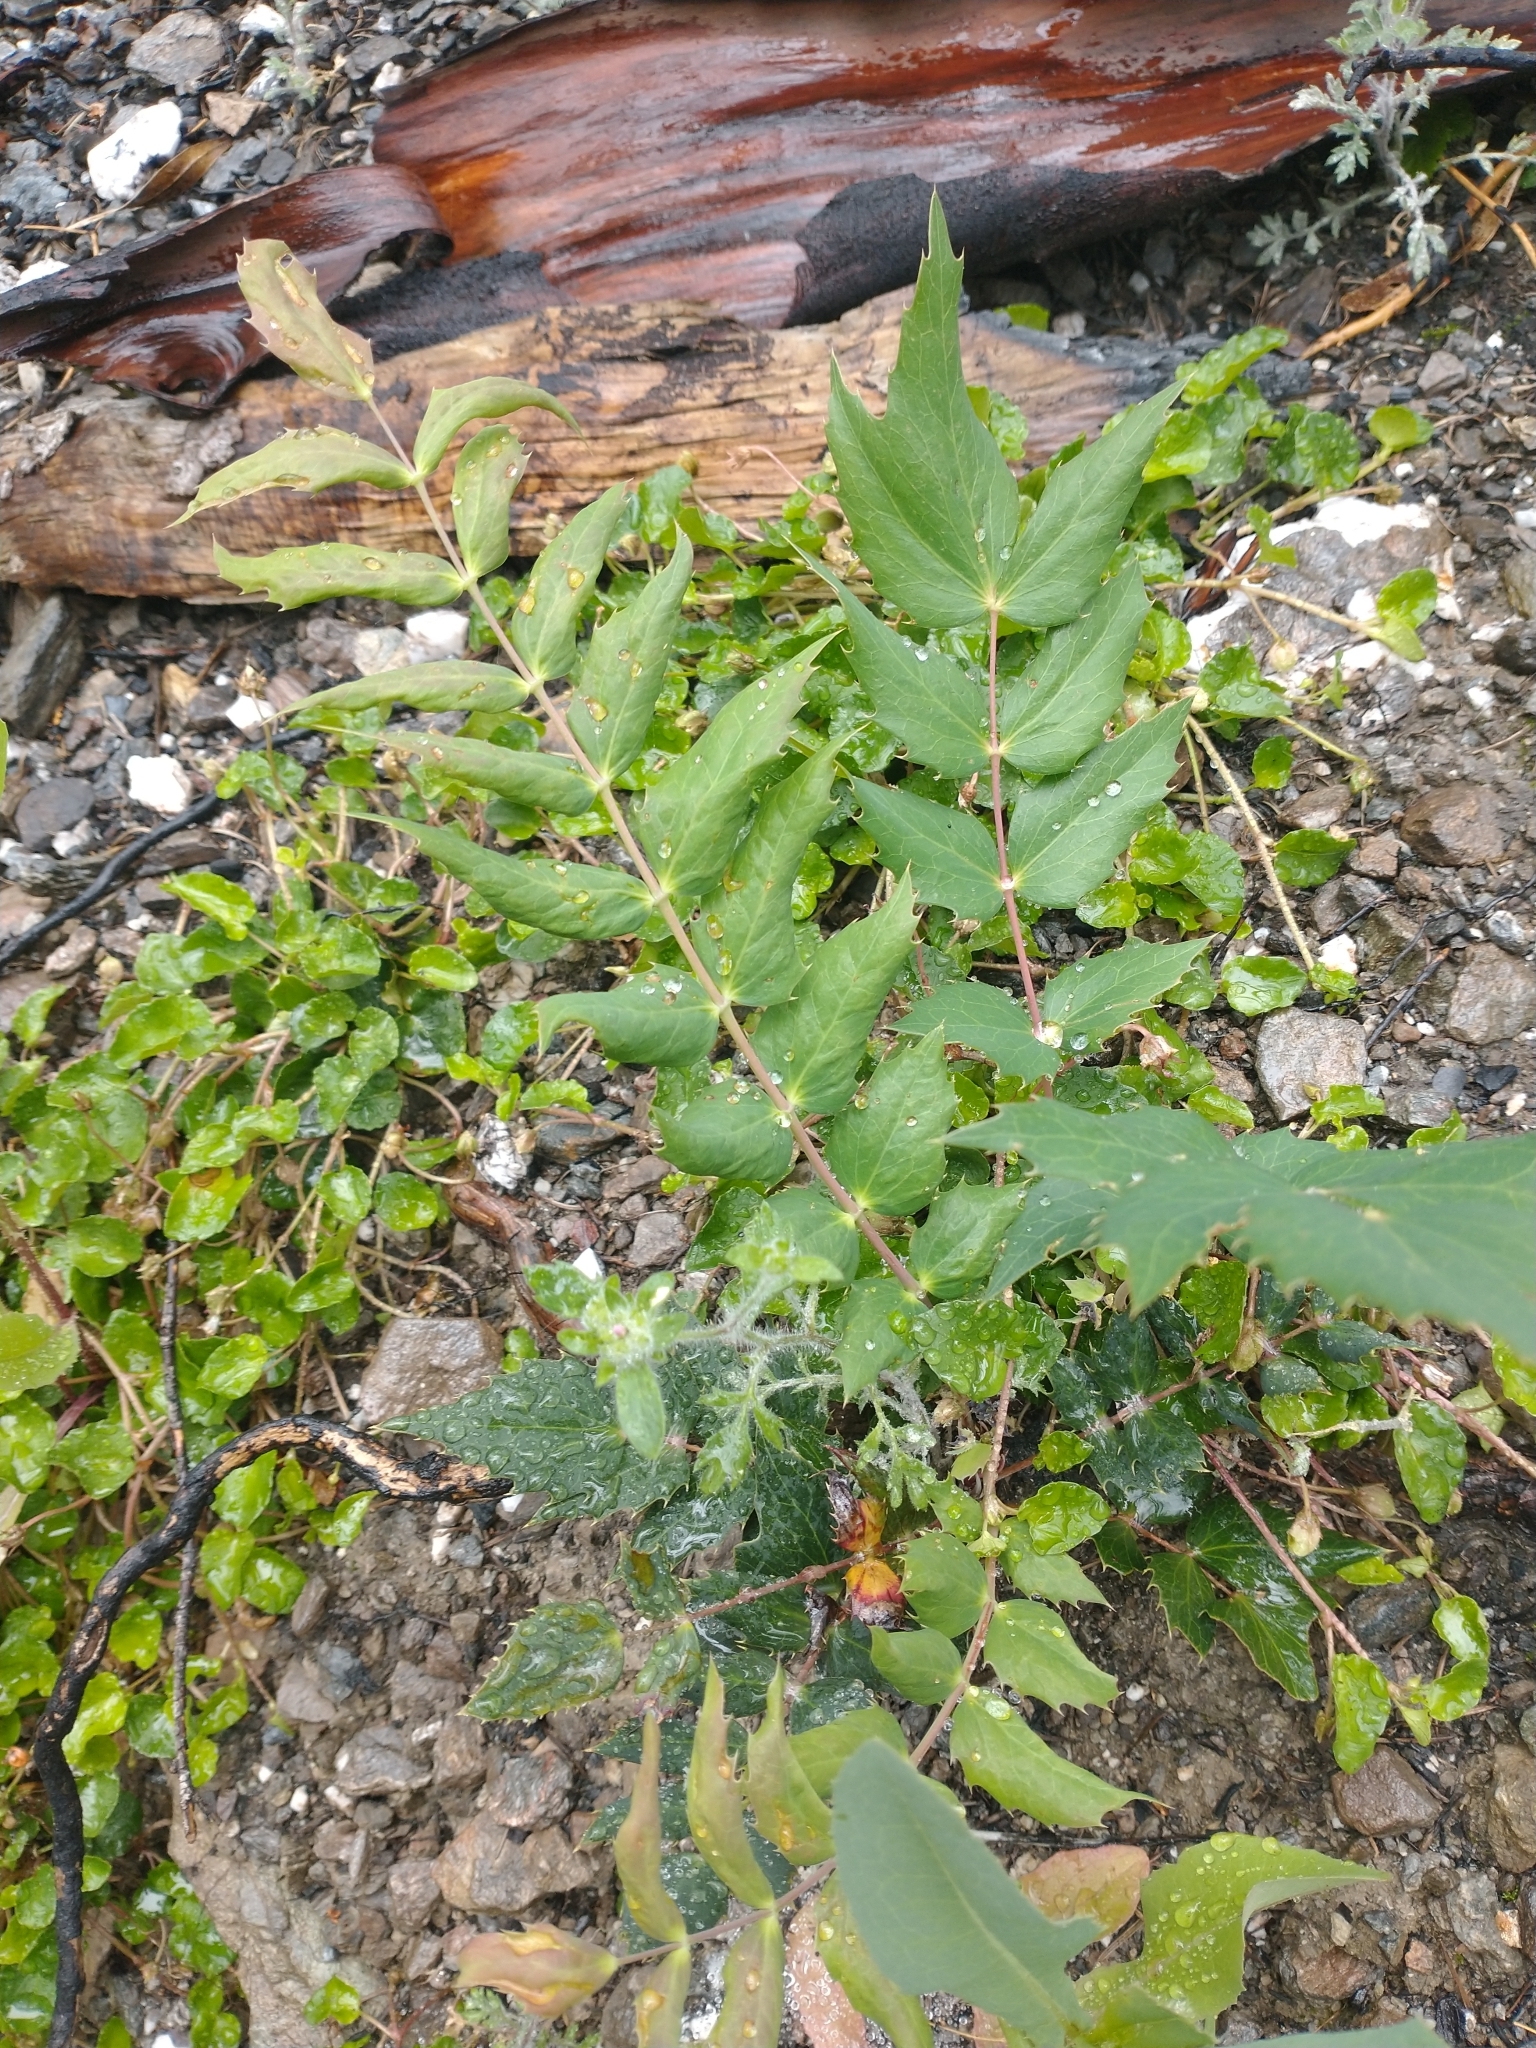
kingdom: Plantae
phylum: Tracheophyta
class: Magnoliopsida
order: Ranunculales
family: Berberidaceae
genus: Mahonia
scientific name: Mahonia nervosa
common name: Cascade oregon-grape
